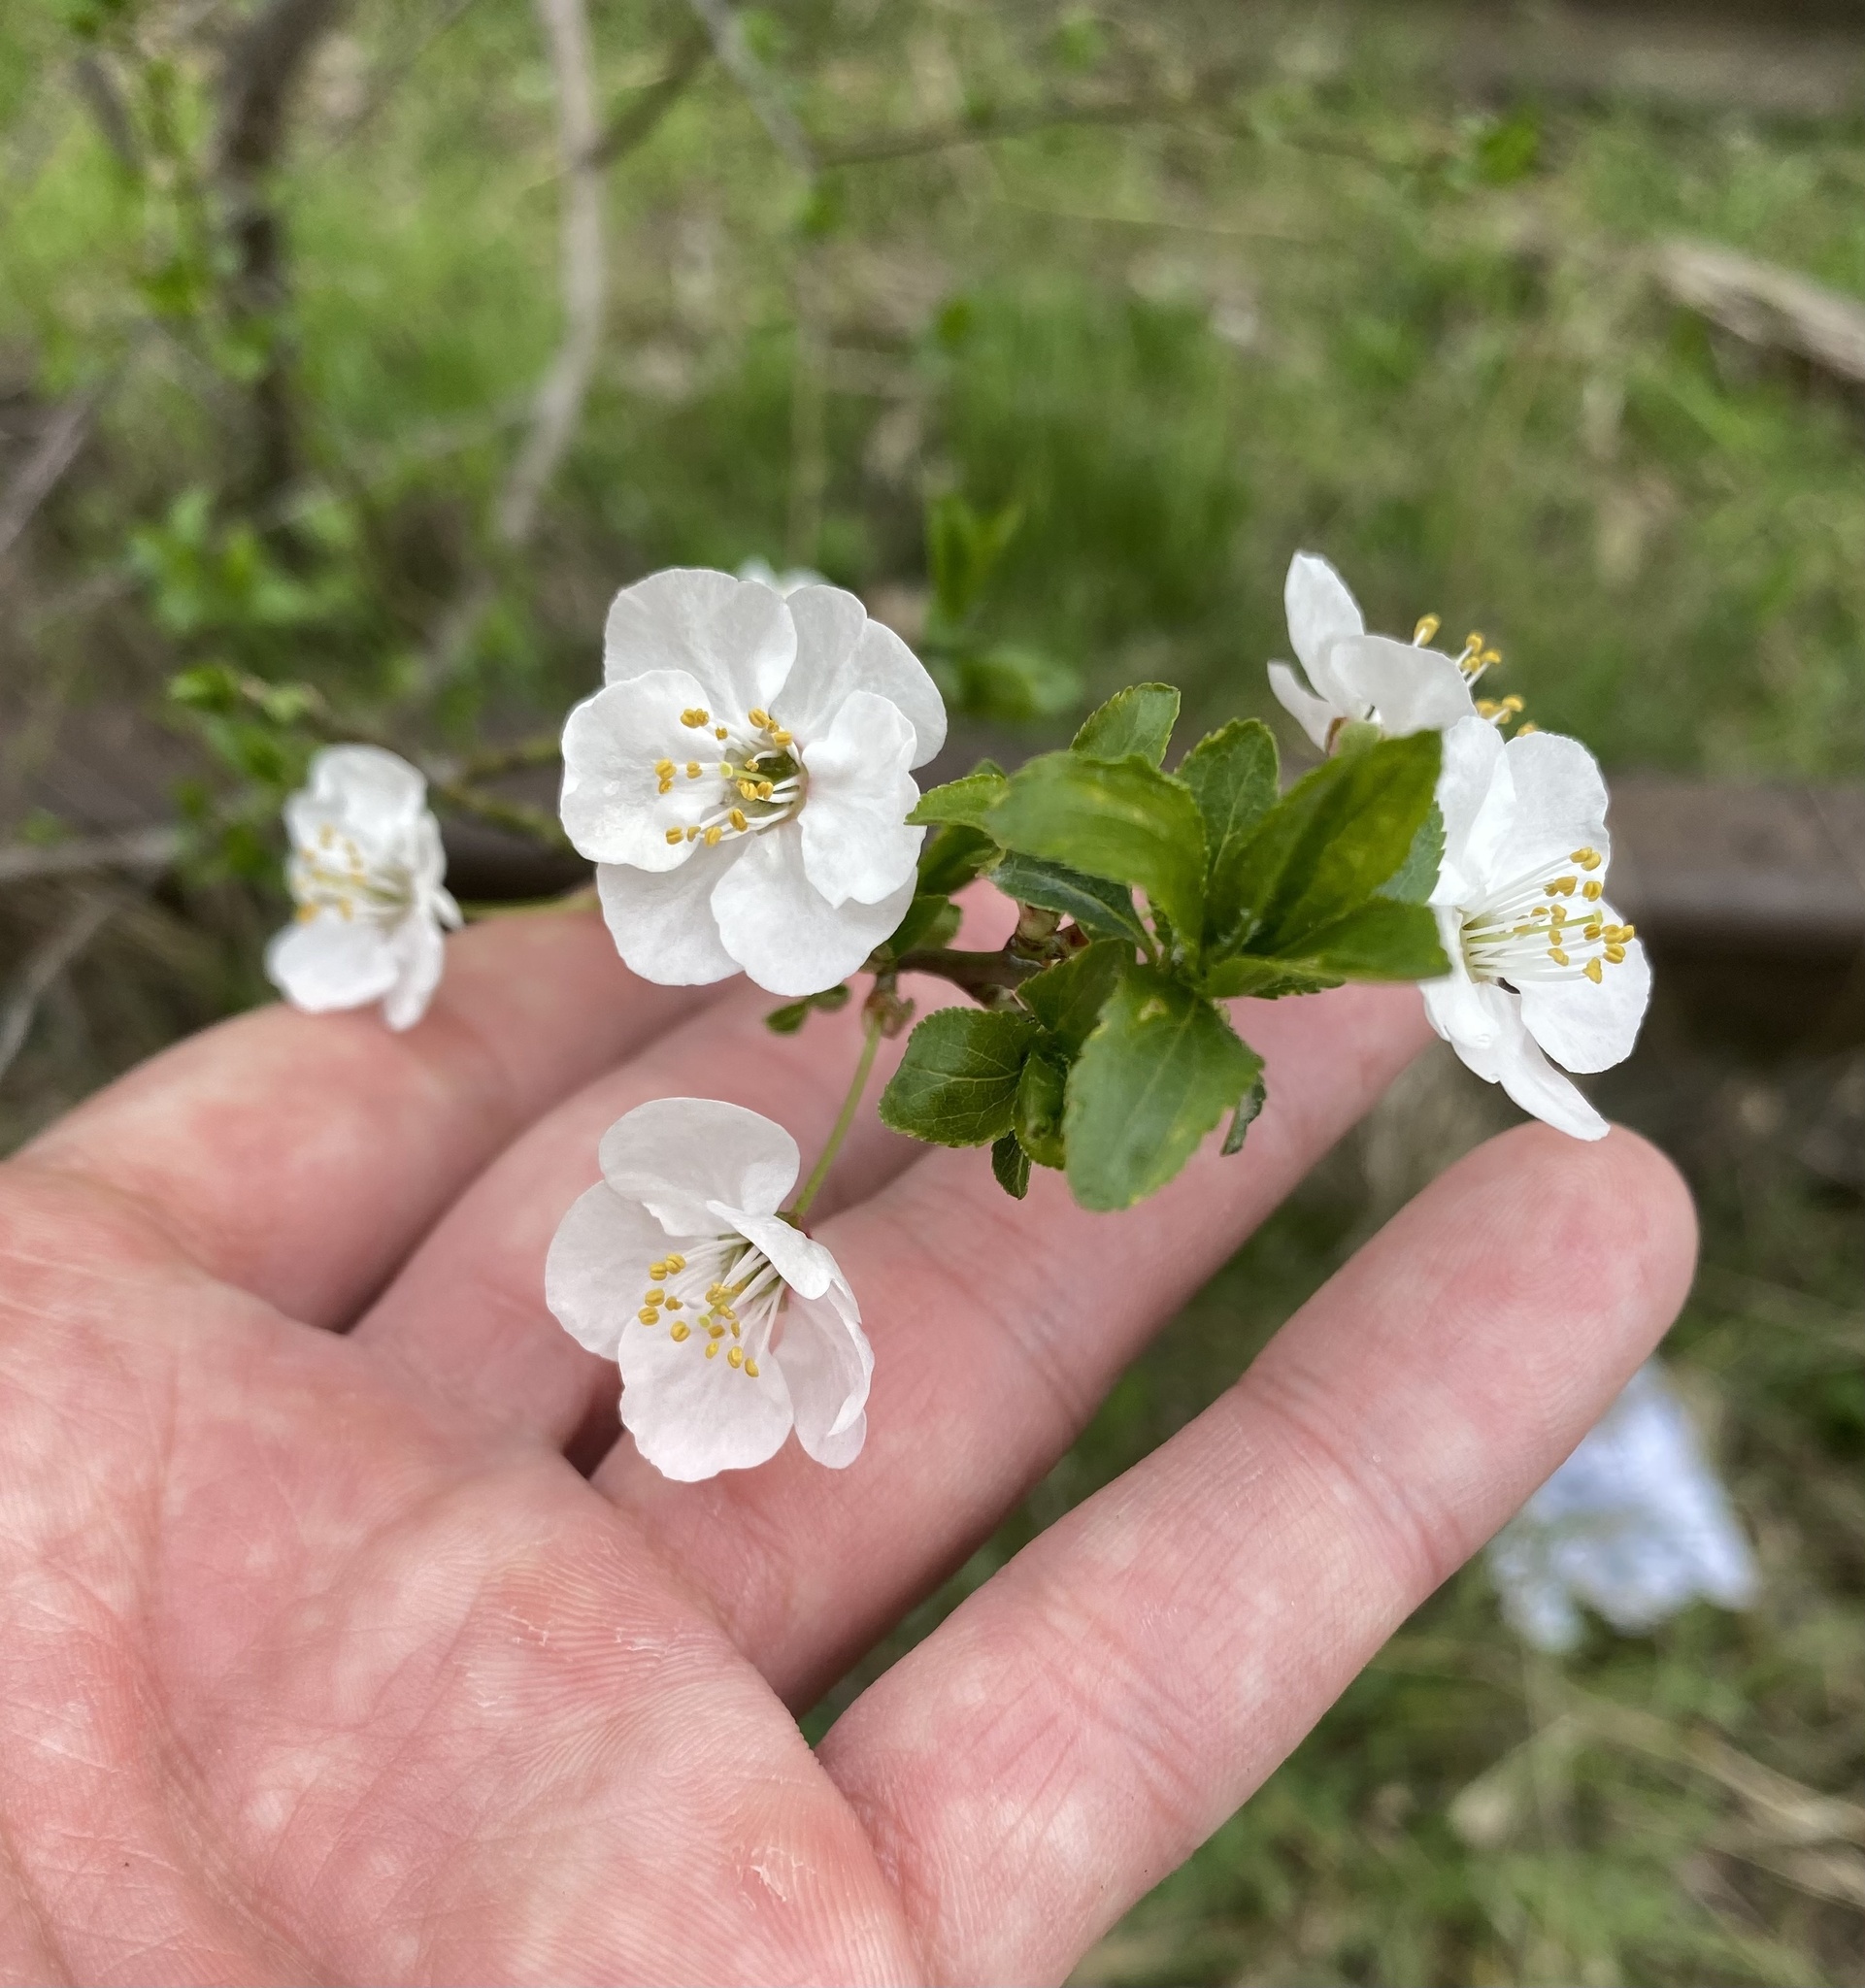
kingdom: Plantae
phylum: Tracheophyta
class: Magnoliopsida
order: Rosales
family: Rosaceae
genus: Prunus
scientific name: Prunus cerasifera
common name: Cherry plum
